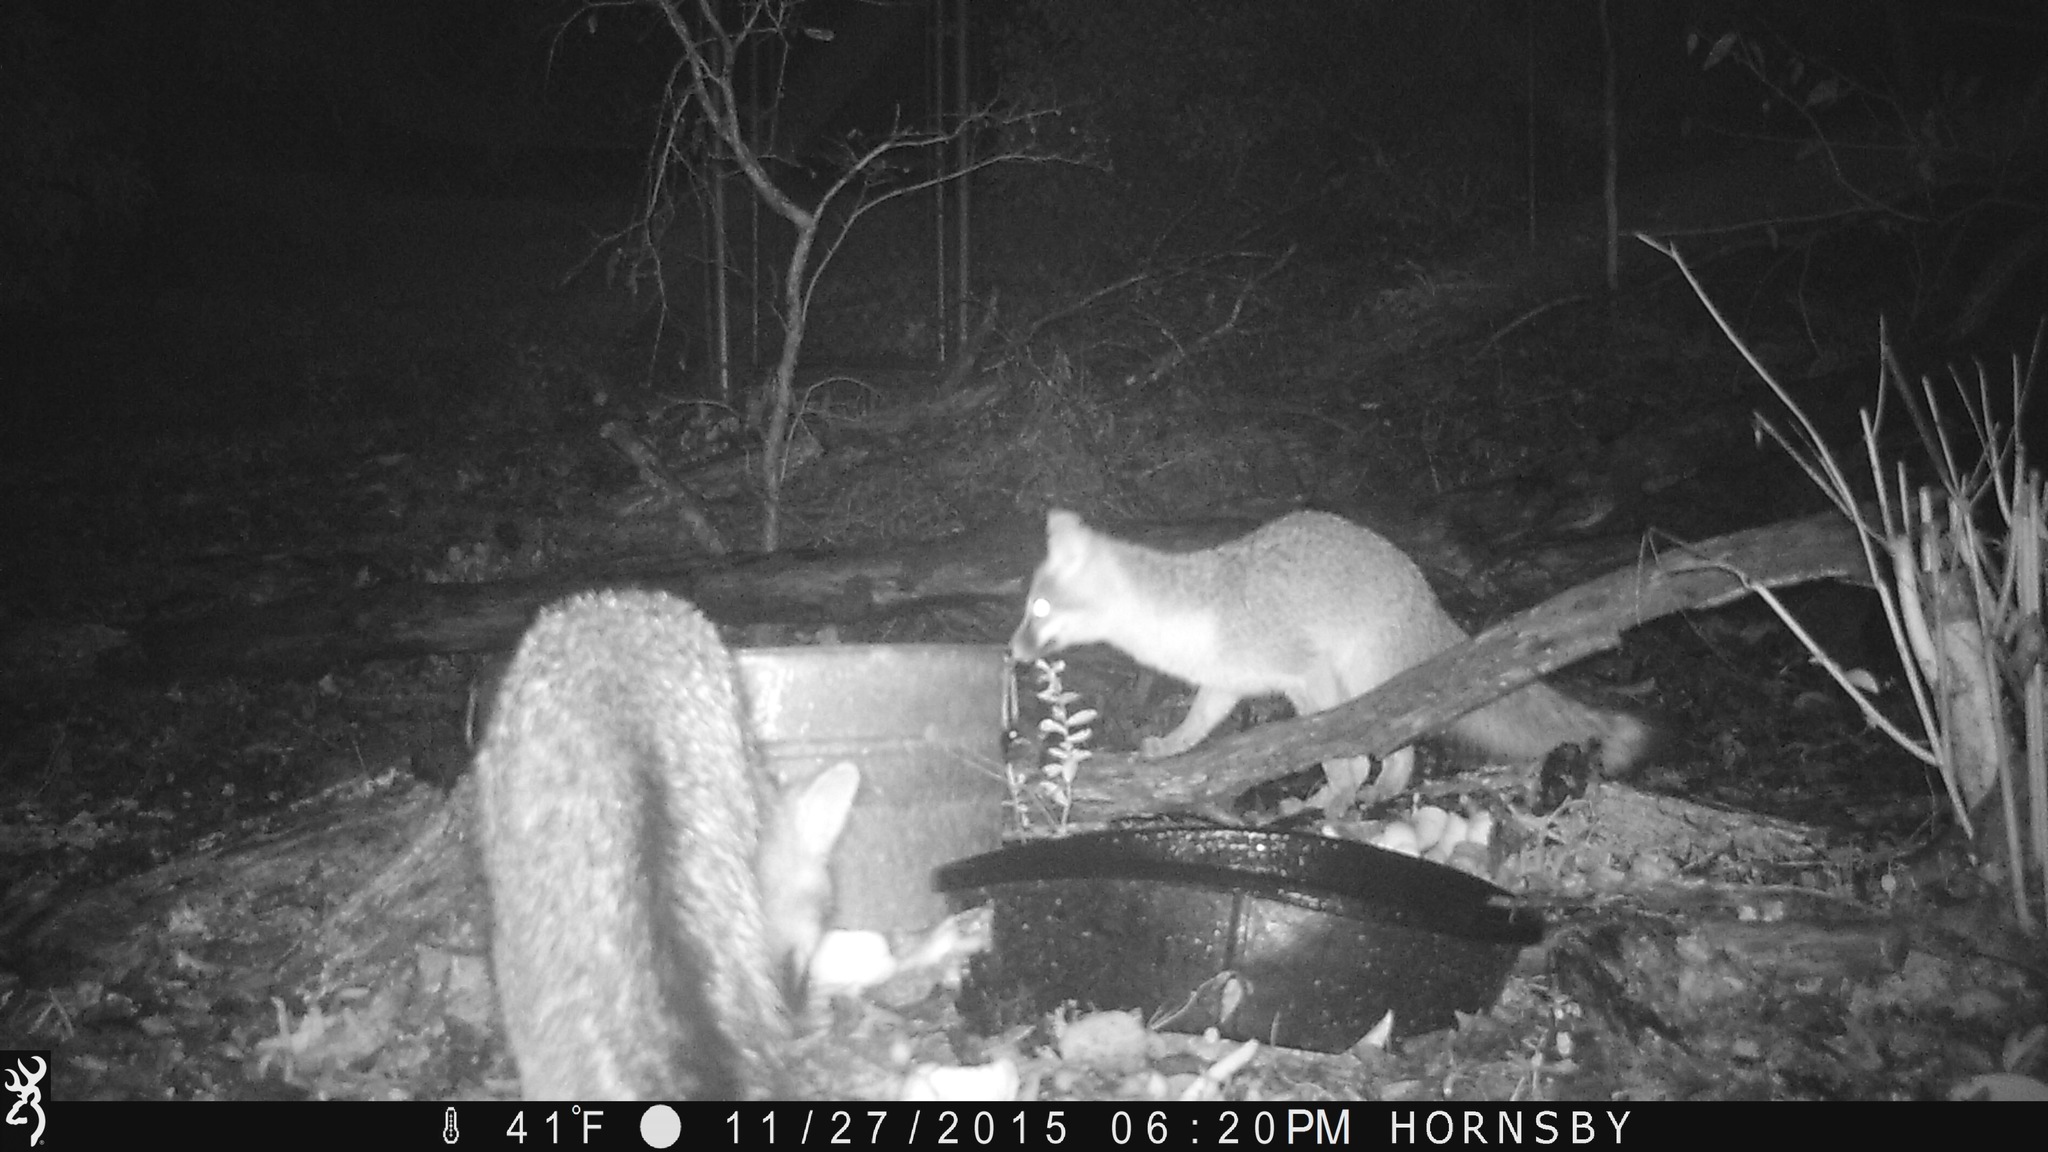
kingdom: Animalia
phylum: Chordata
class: Mammalia
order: Carnivora
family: Canidae
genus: Urocyon
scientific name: Urocyon cinereoargenteus
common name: Gray fox
